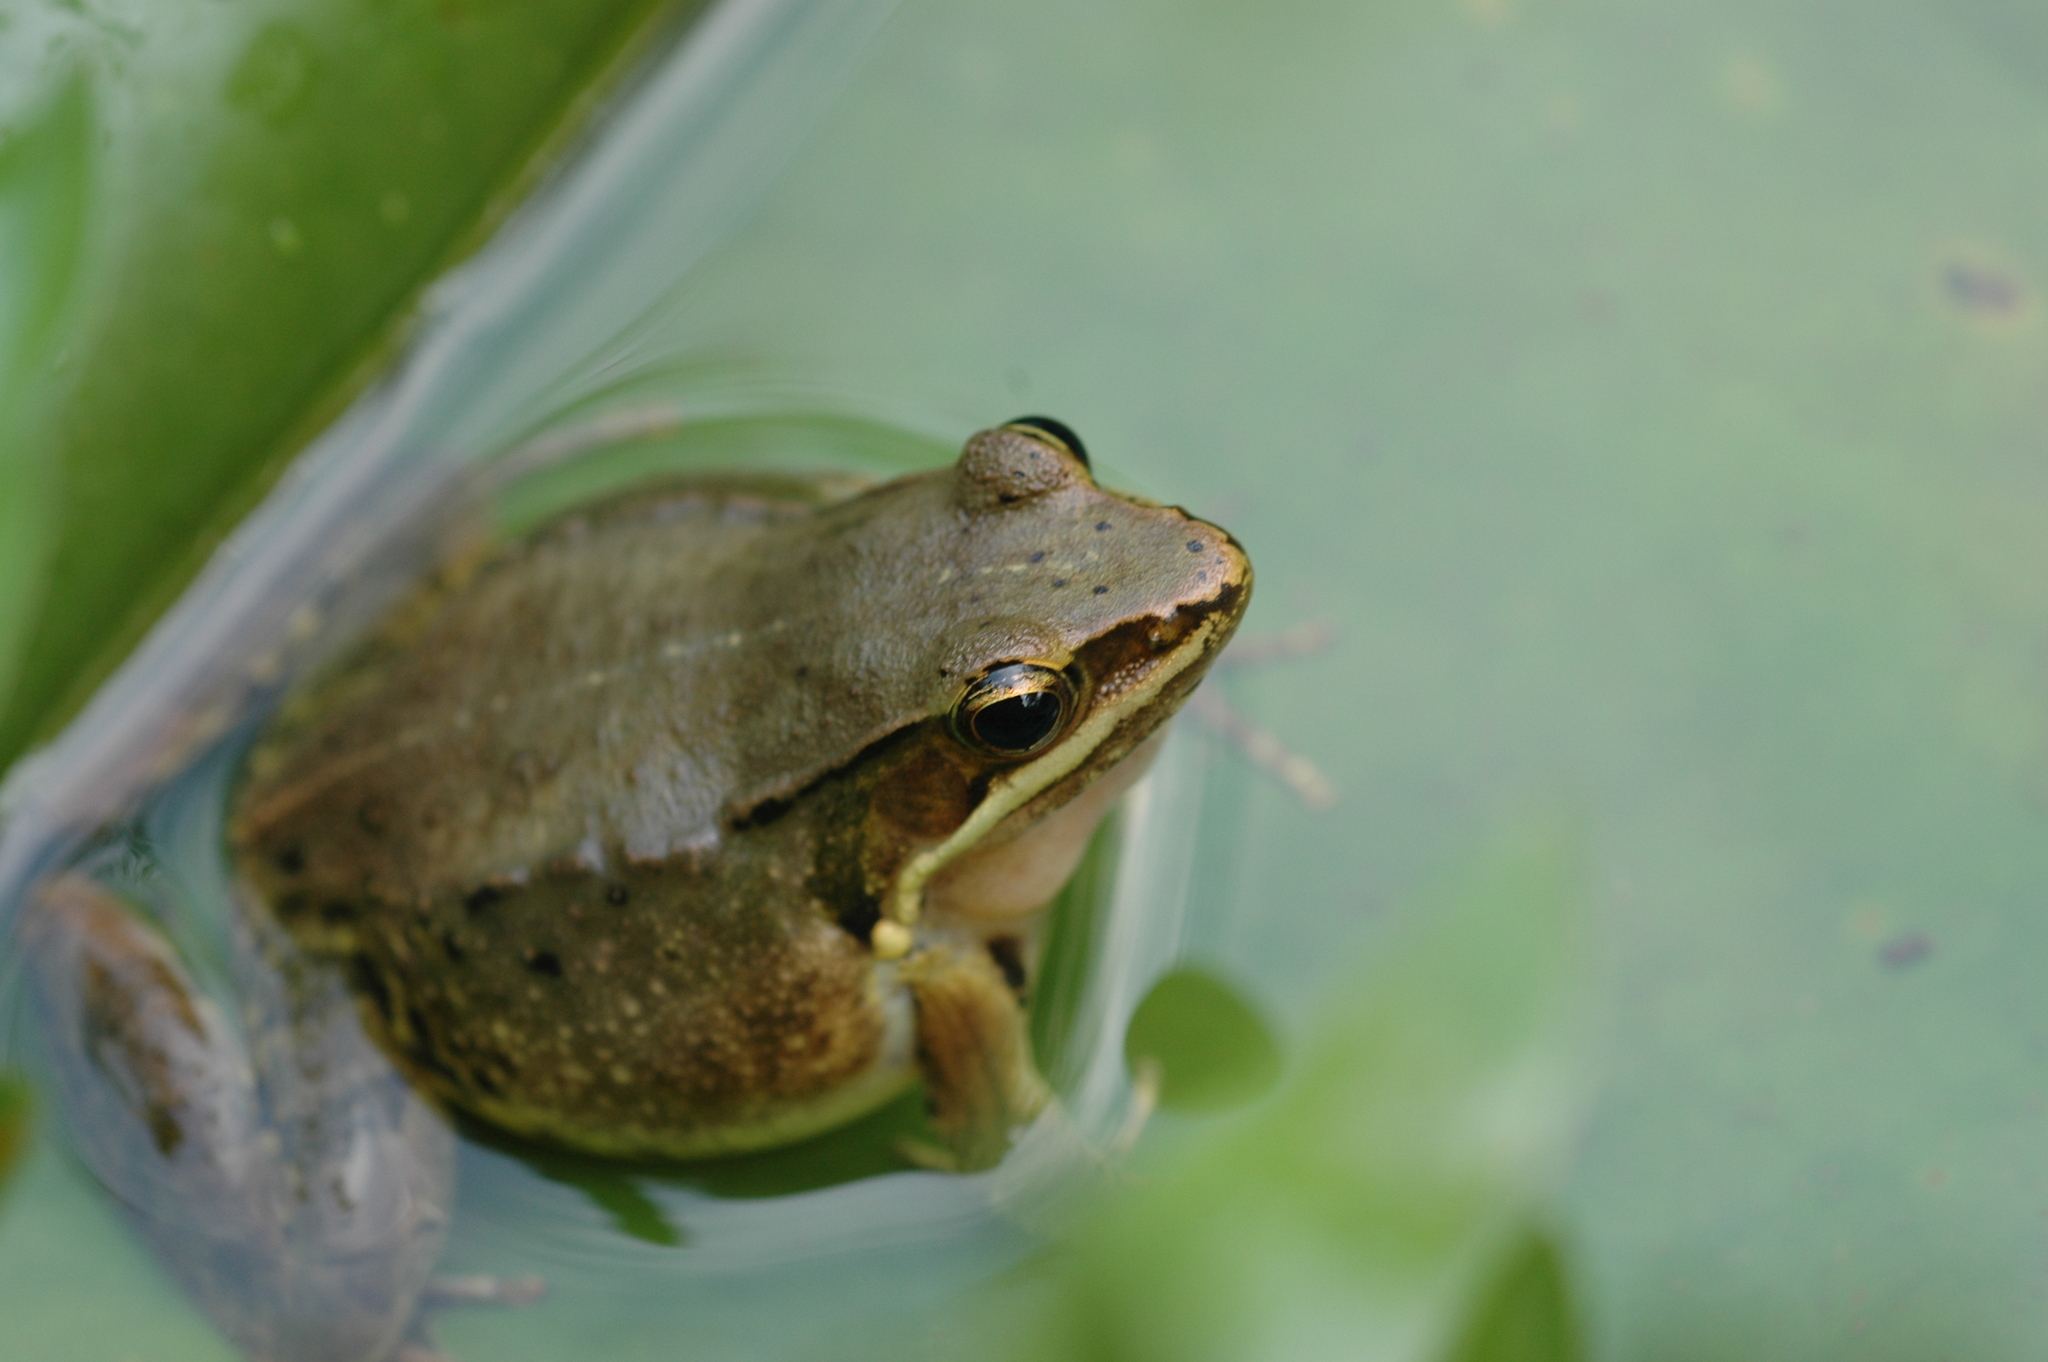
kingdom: Animalia
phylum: Chordata
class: Amphibia
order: Anura
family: Ranidae
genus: Nidirana
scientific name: Nidirana adenopleura
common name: Olive frog
